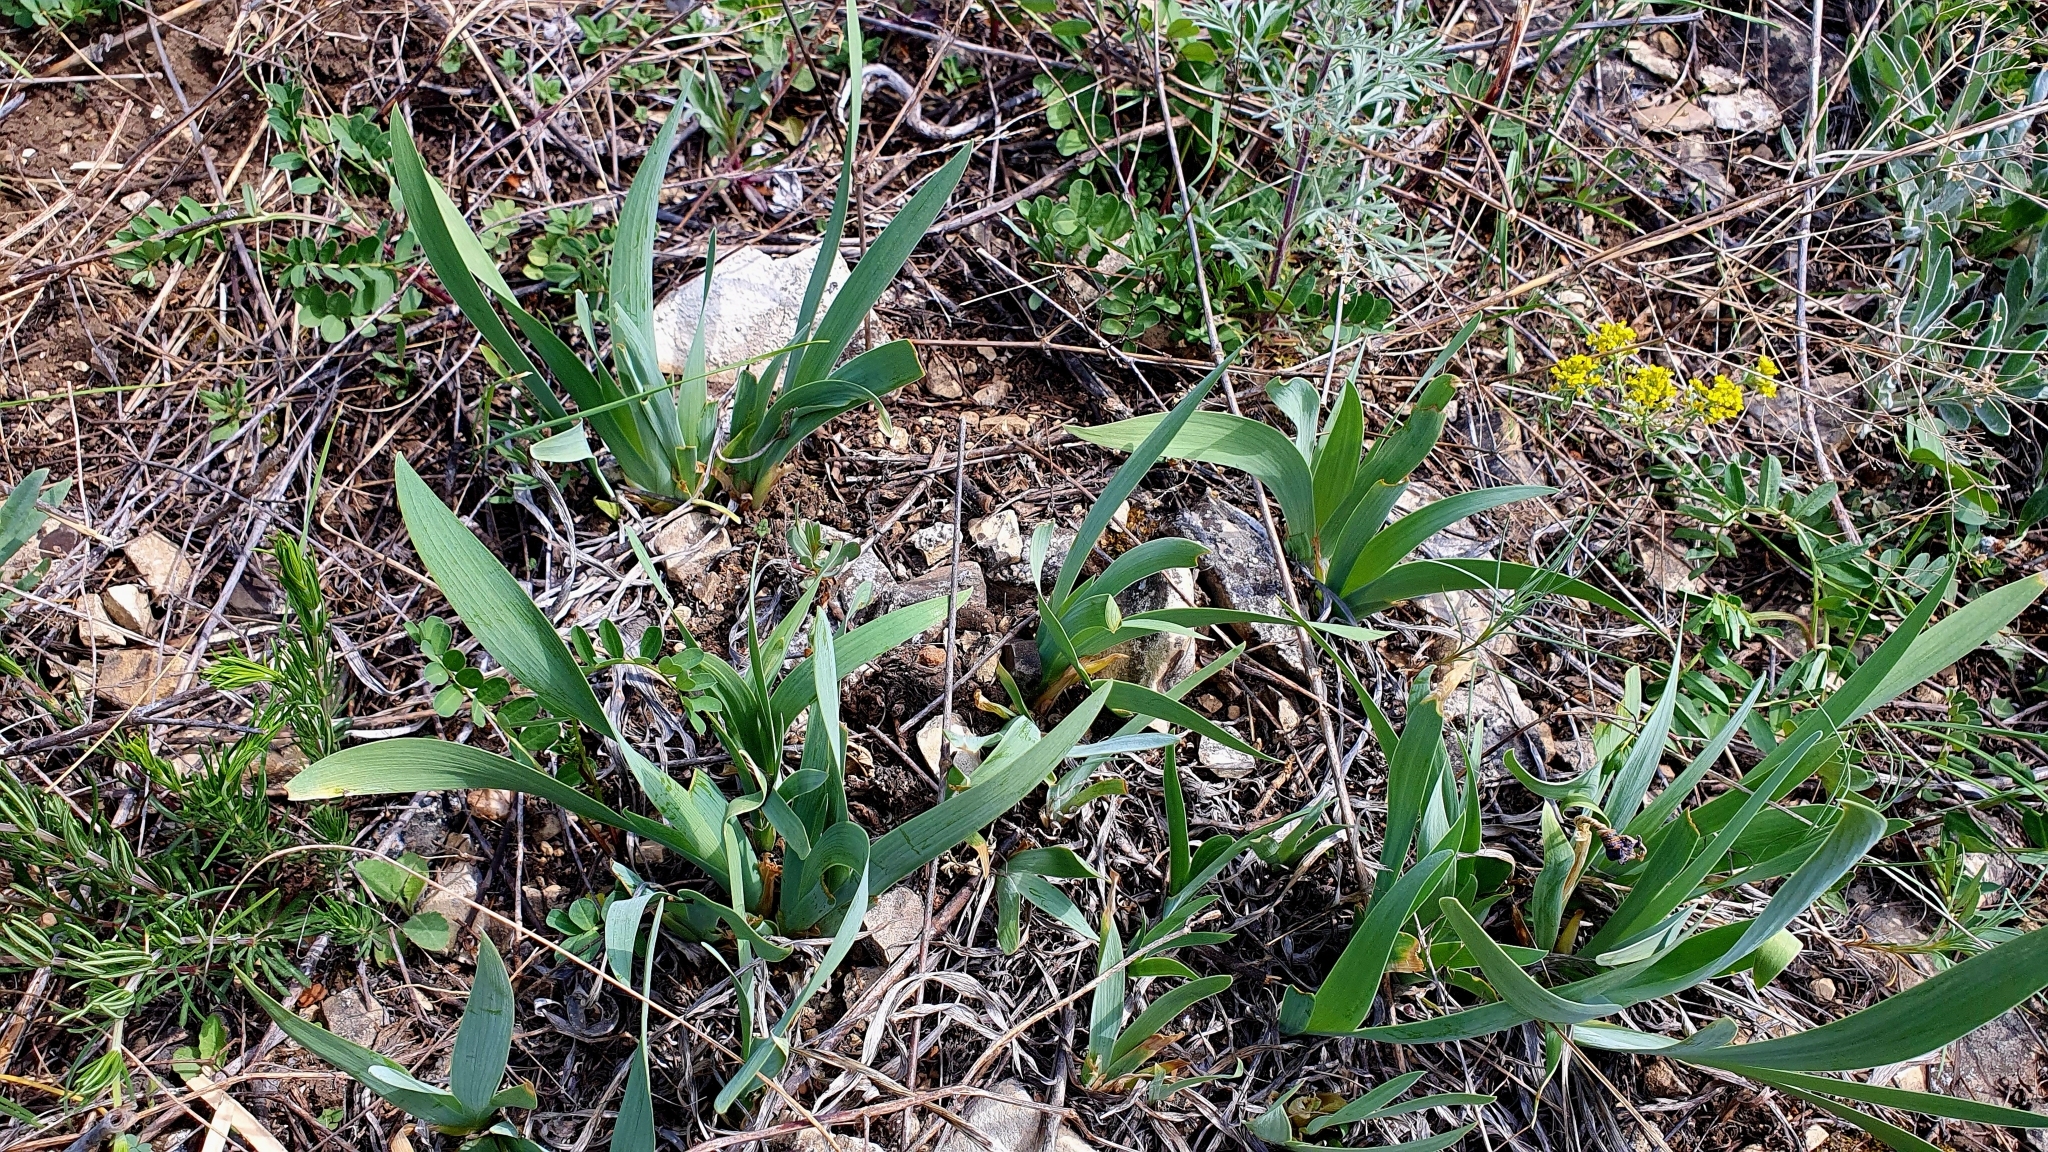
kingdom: Plantae
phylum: Tracheophyta
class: Liliopsida
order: Asparagales
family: Iridaceae
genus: Iris
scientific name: Iris pumila
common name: Dwarf iris
